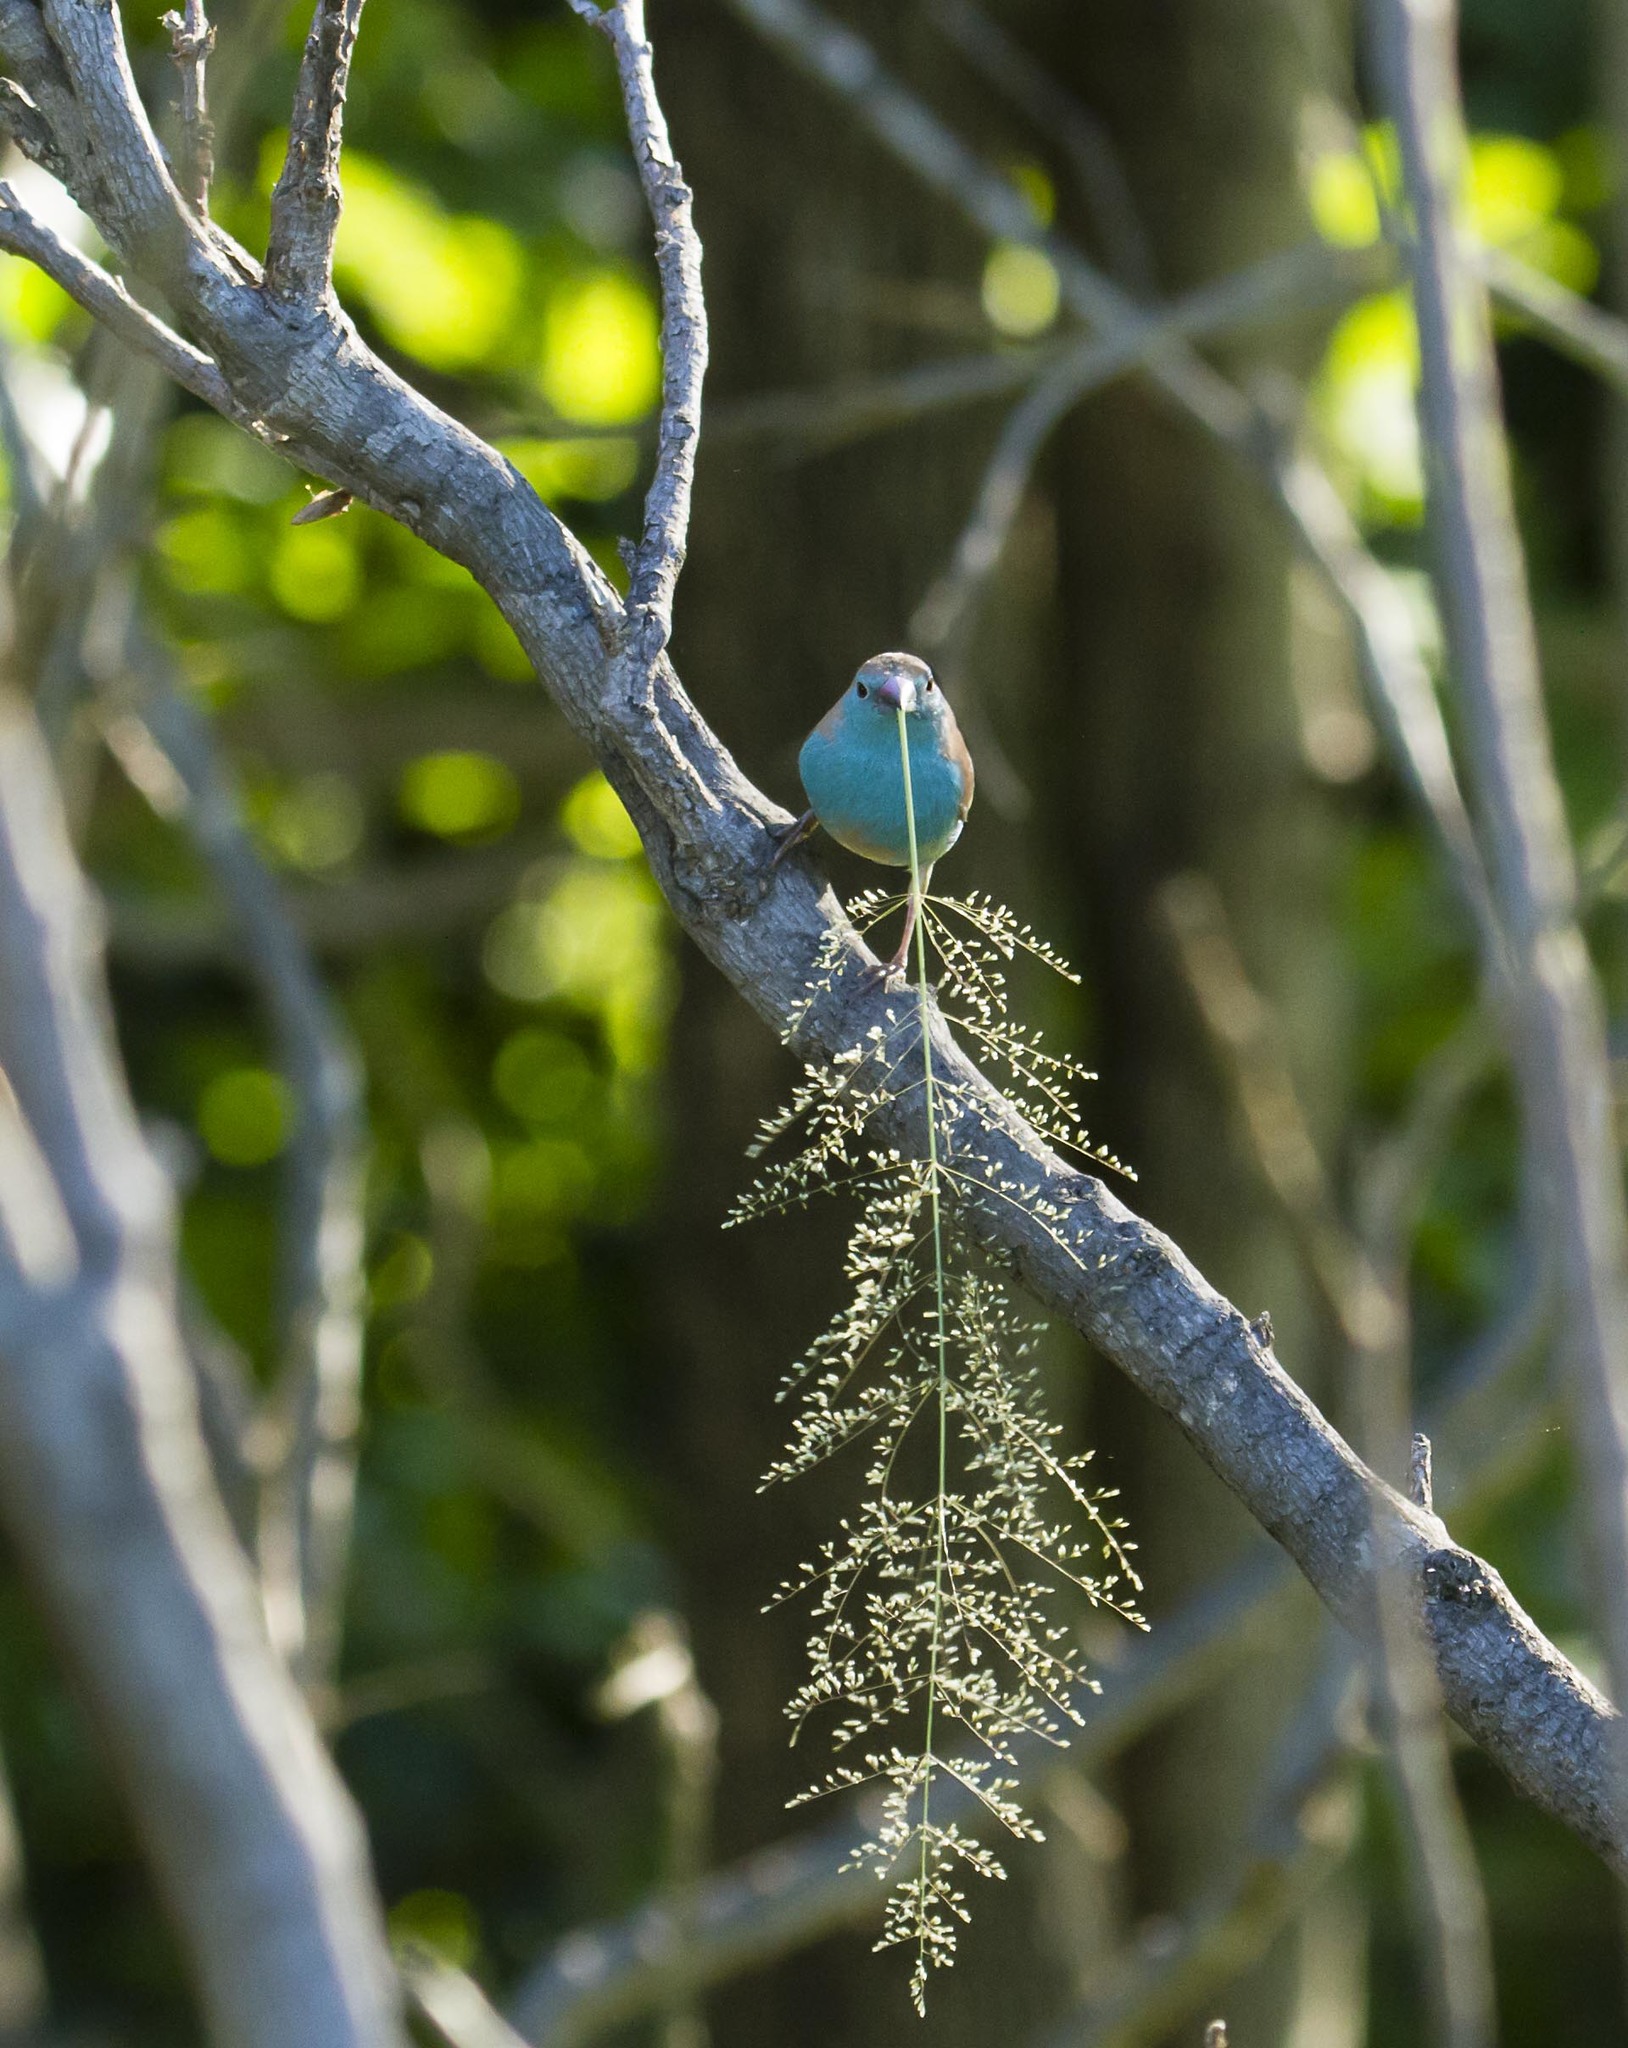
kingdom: Animalia
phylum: Chordata
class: Aves
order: Passeriformes
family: Estrildidae
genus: Uraeginthus
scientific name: Uraeginthus angolensis
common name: Blue waxbill
